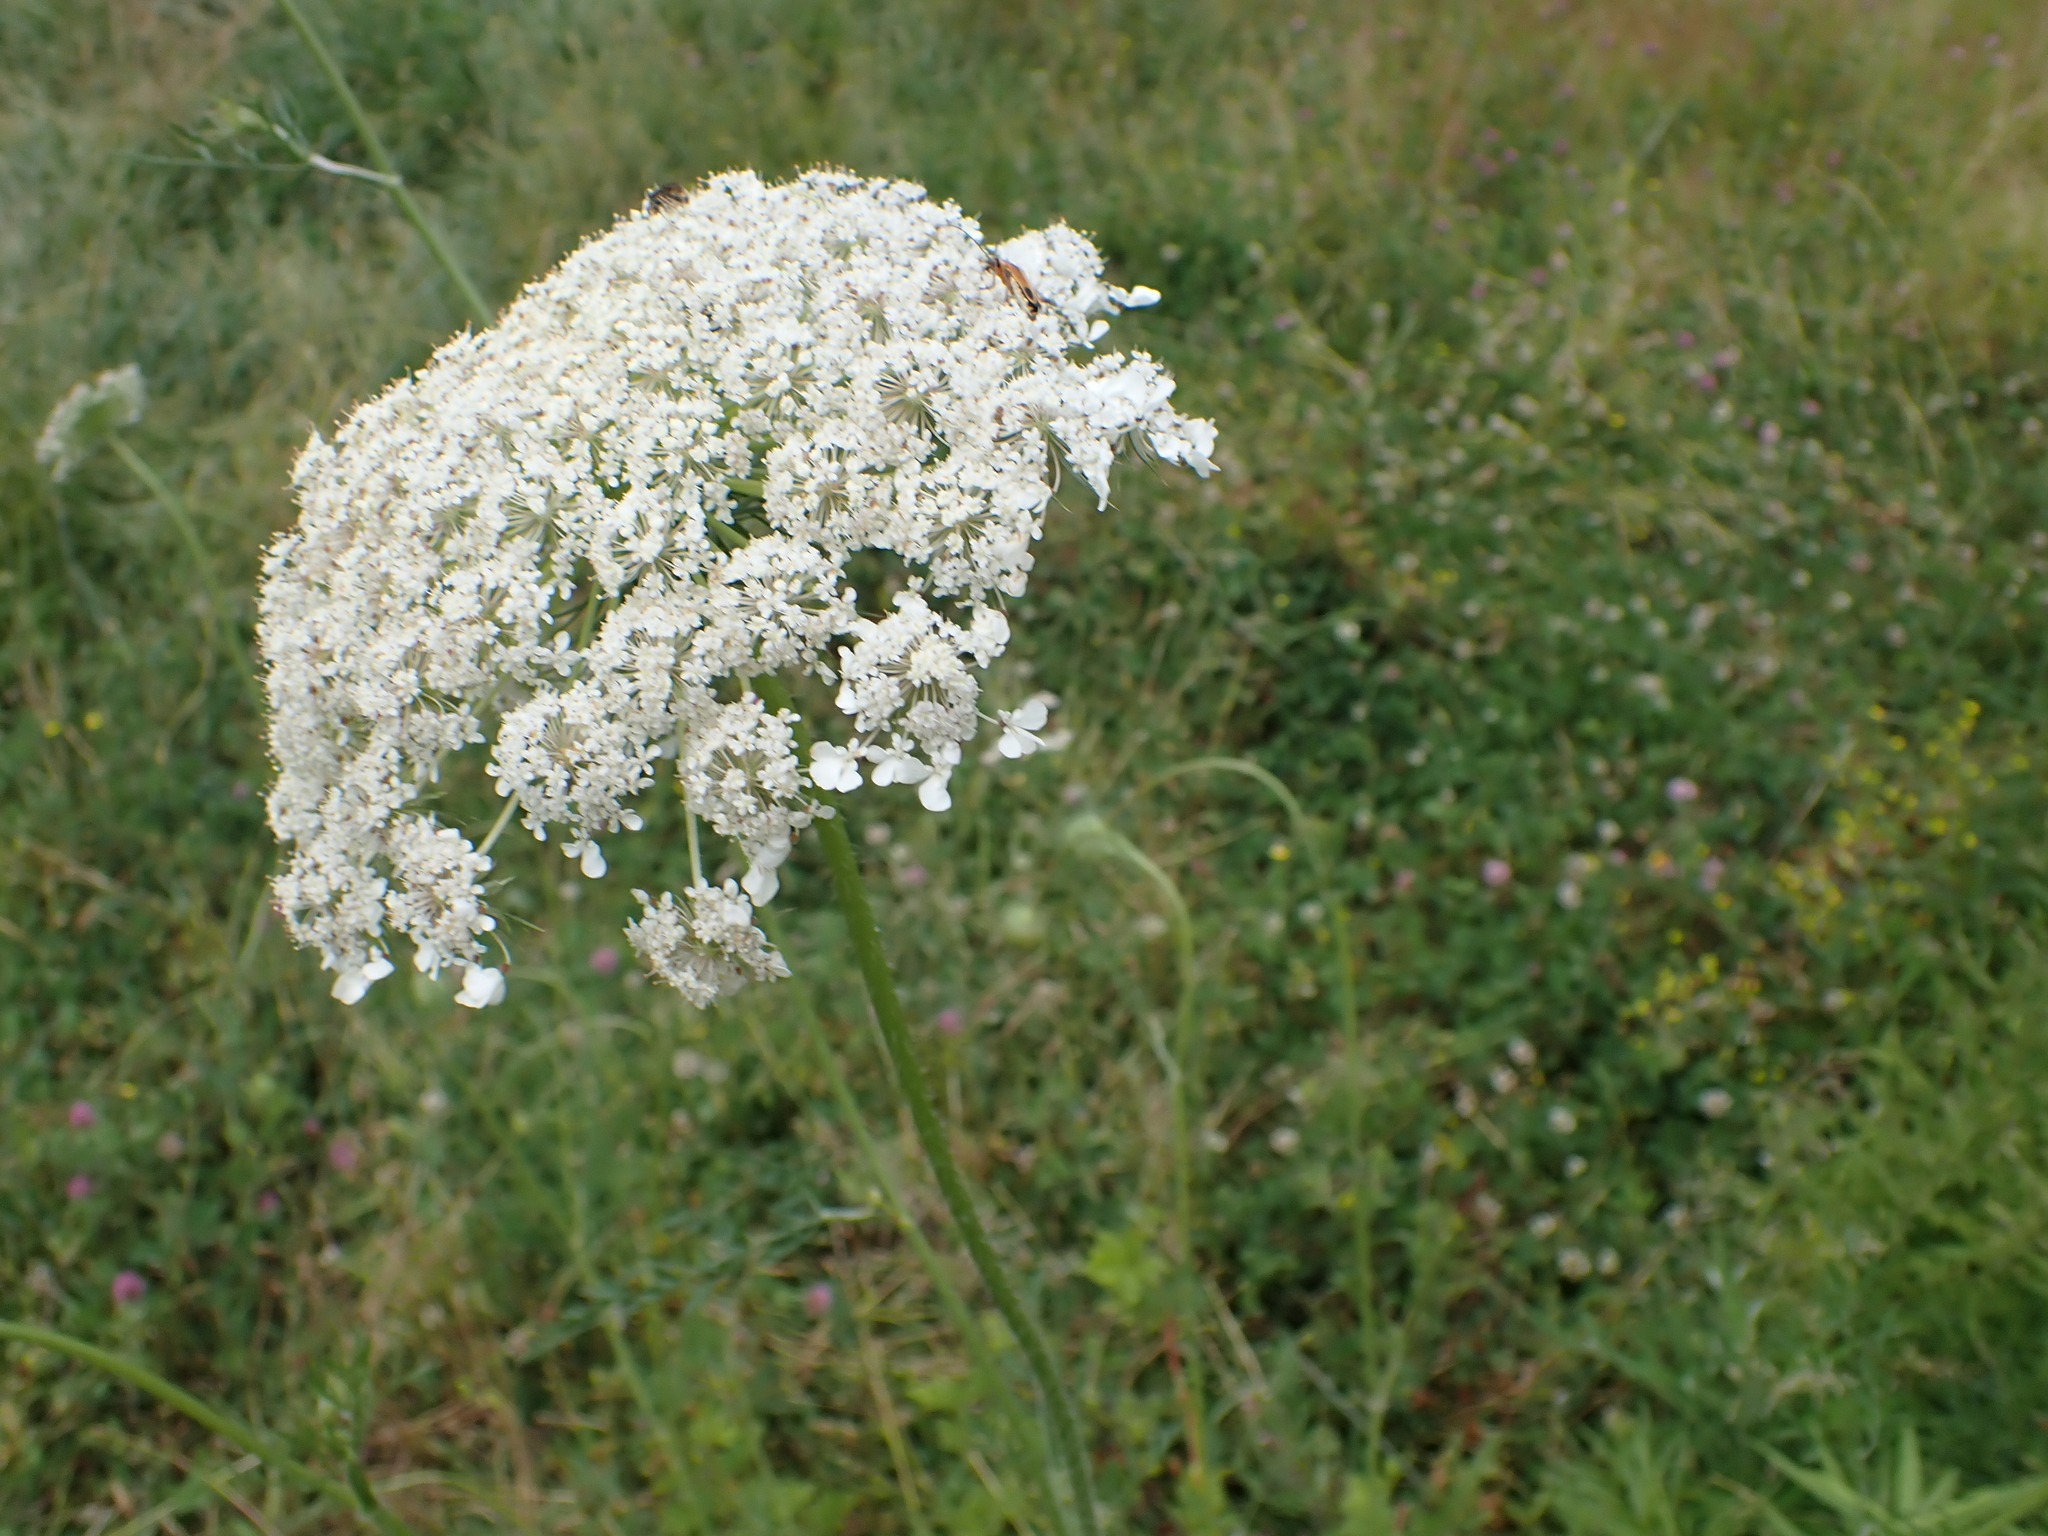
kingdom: Plantae
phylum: Tracheophyta
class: Magnoliopsida
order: Apiales
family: Apiaceae
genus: Daucus
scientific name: Daucus carota
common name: Wild carrot
